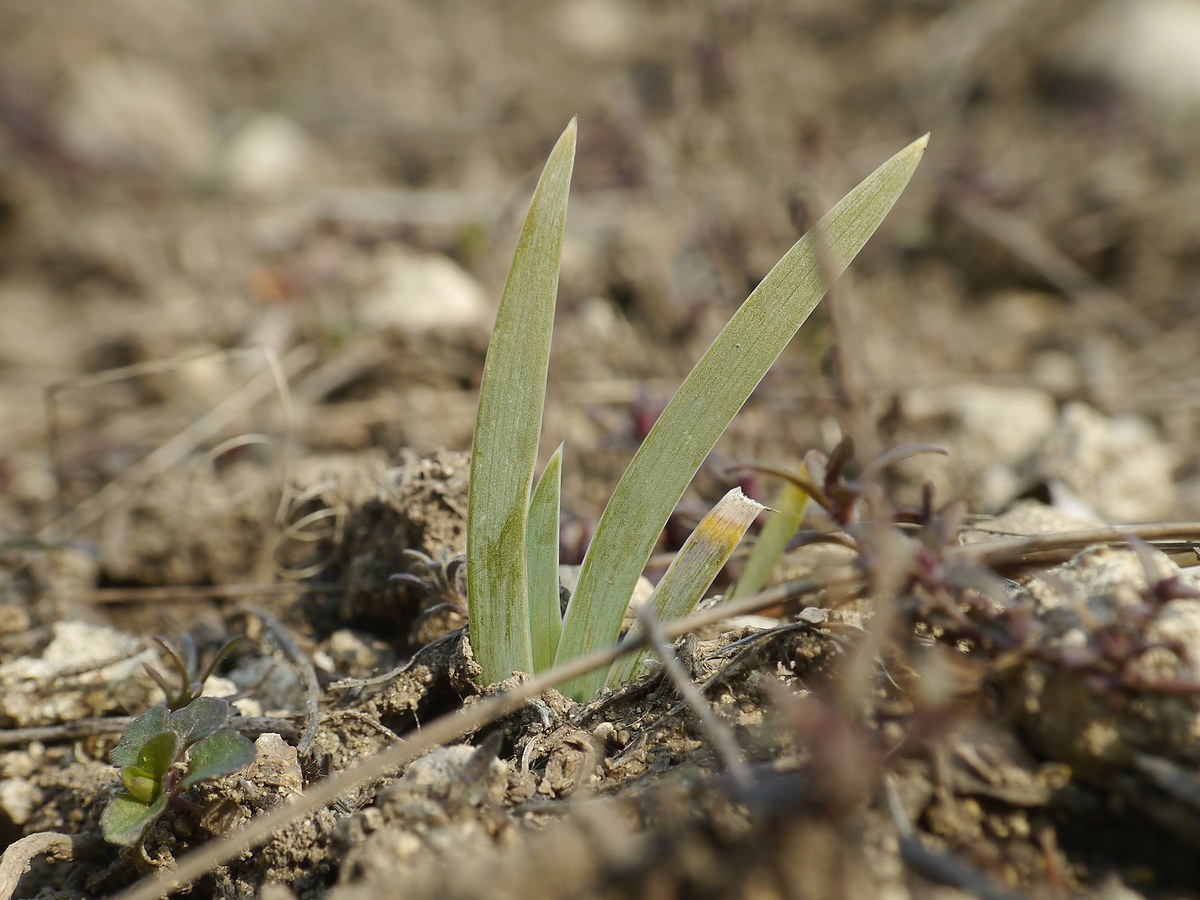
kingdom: Plantae
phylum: Tracheophyta
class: Liliopsida
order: Asparagales
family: Iridaceae
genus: Iris
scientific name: Iris pumila
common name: Dwarf iris
